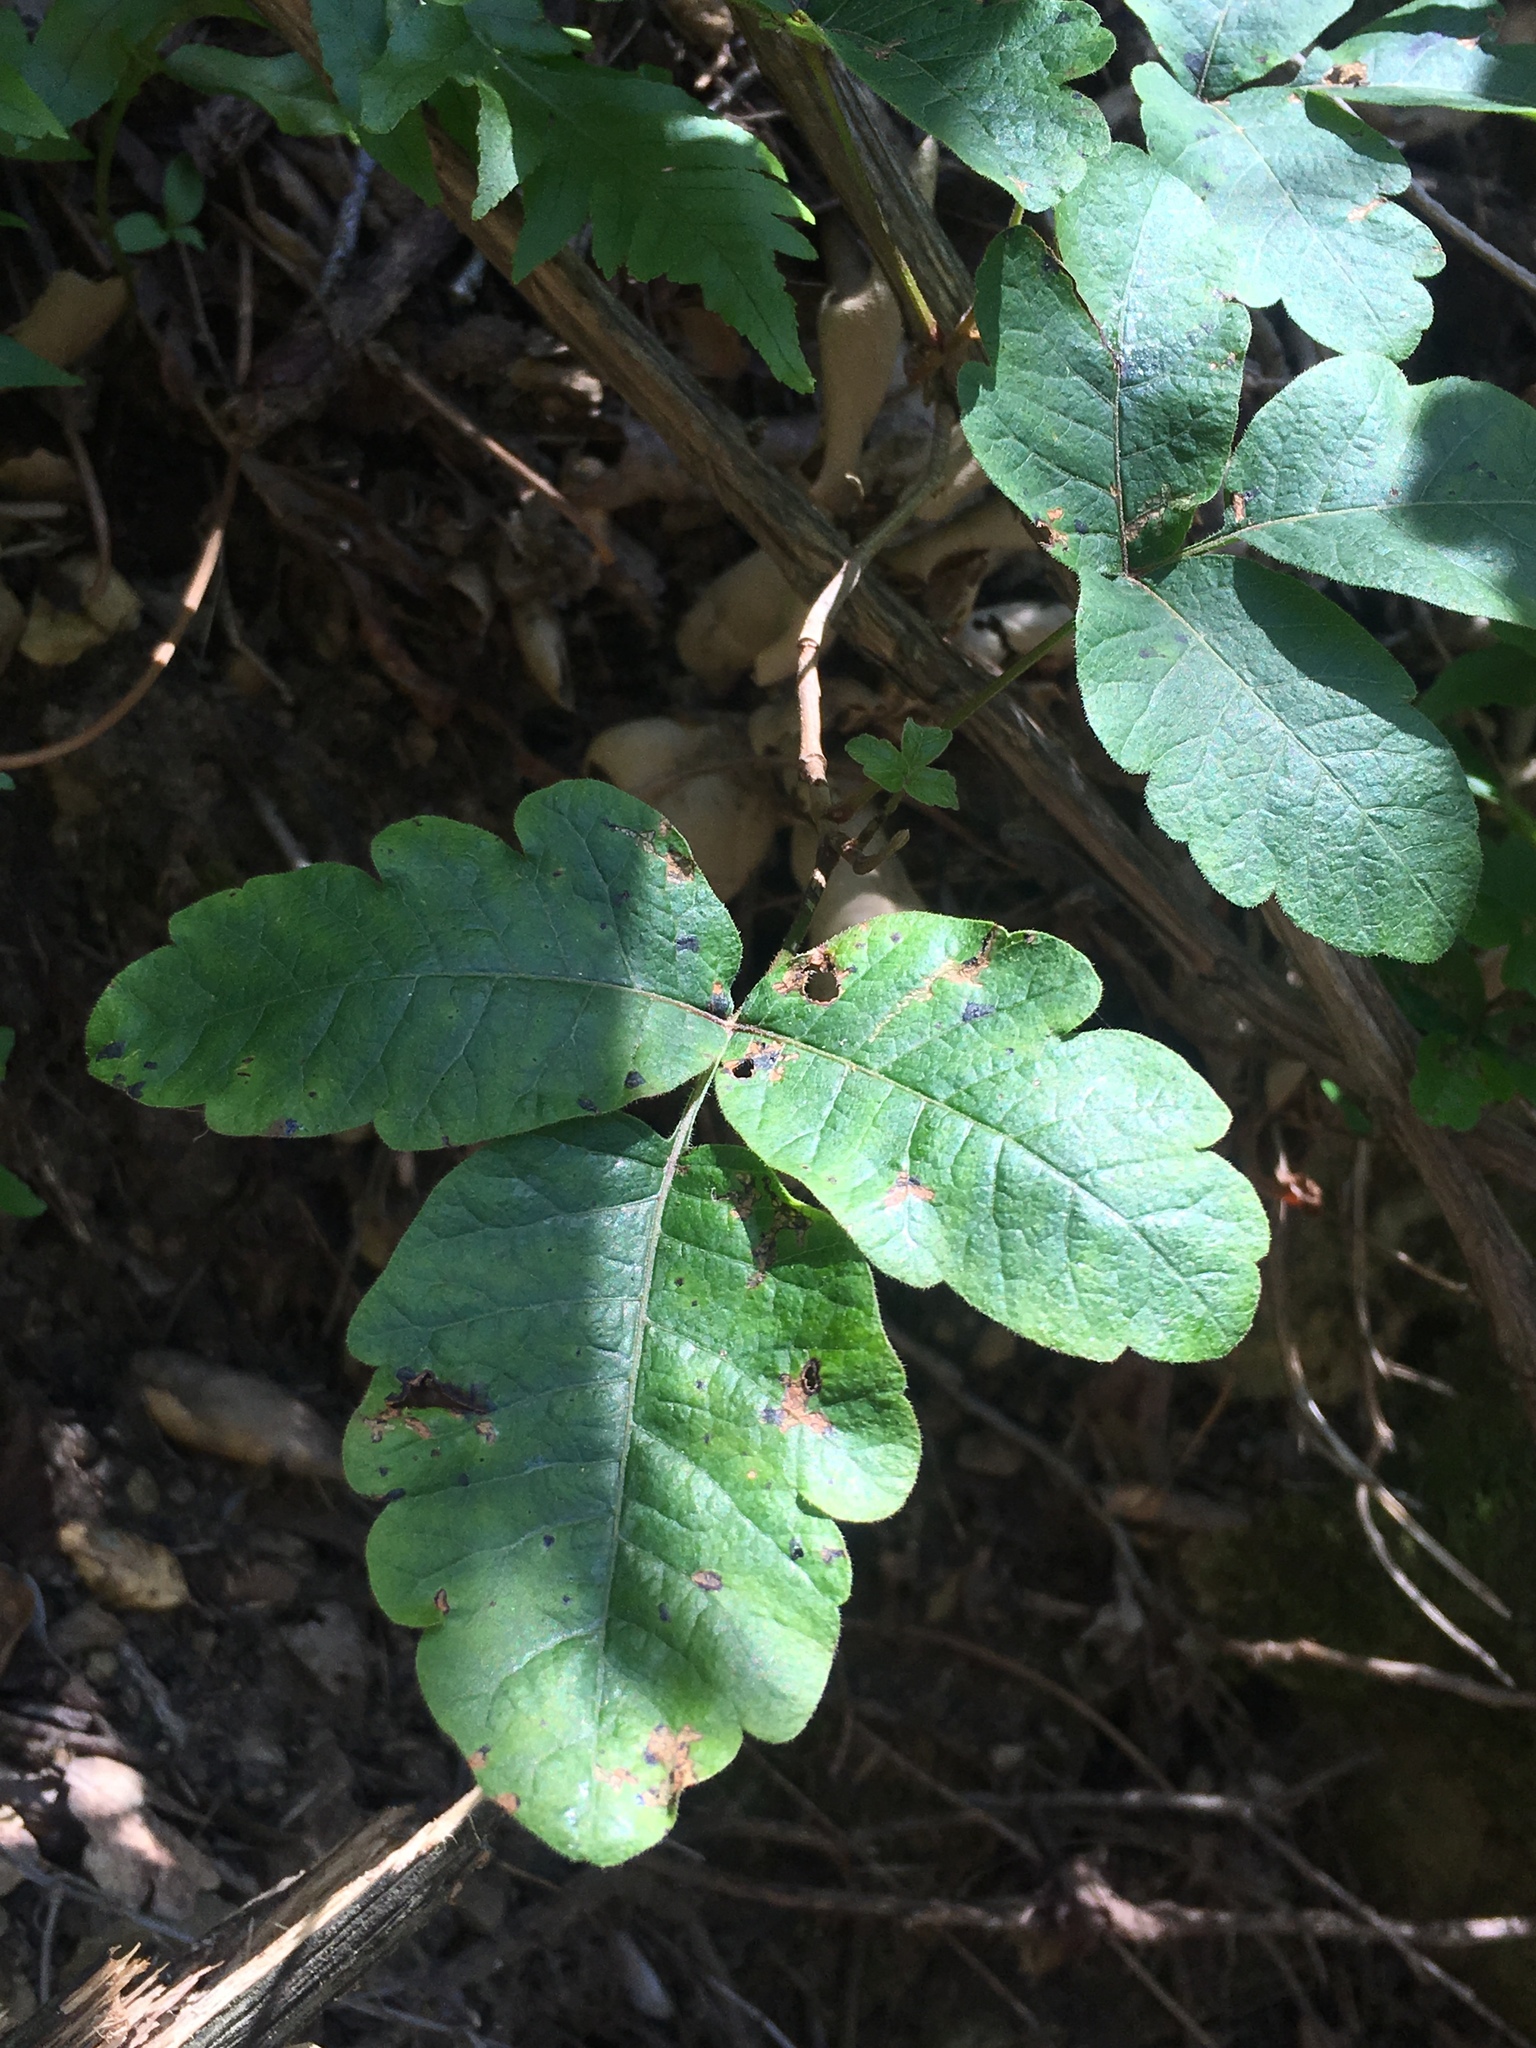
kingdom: Plantae
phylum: Tracheophyta
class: Magnoliopsida
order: Sapindales
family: Anacardiaceae
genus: Toxicodendron
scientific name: Toxicodendron diversilobum
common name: Pacific poison-oak
